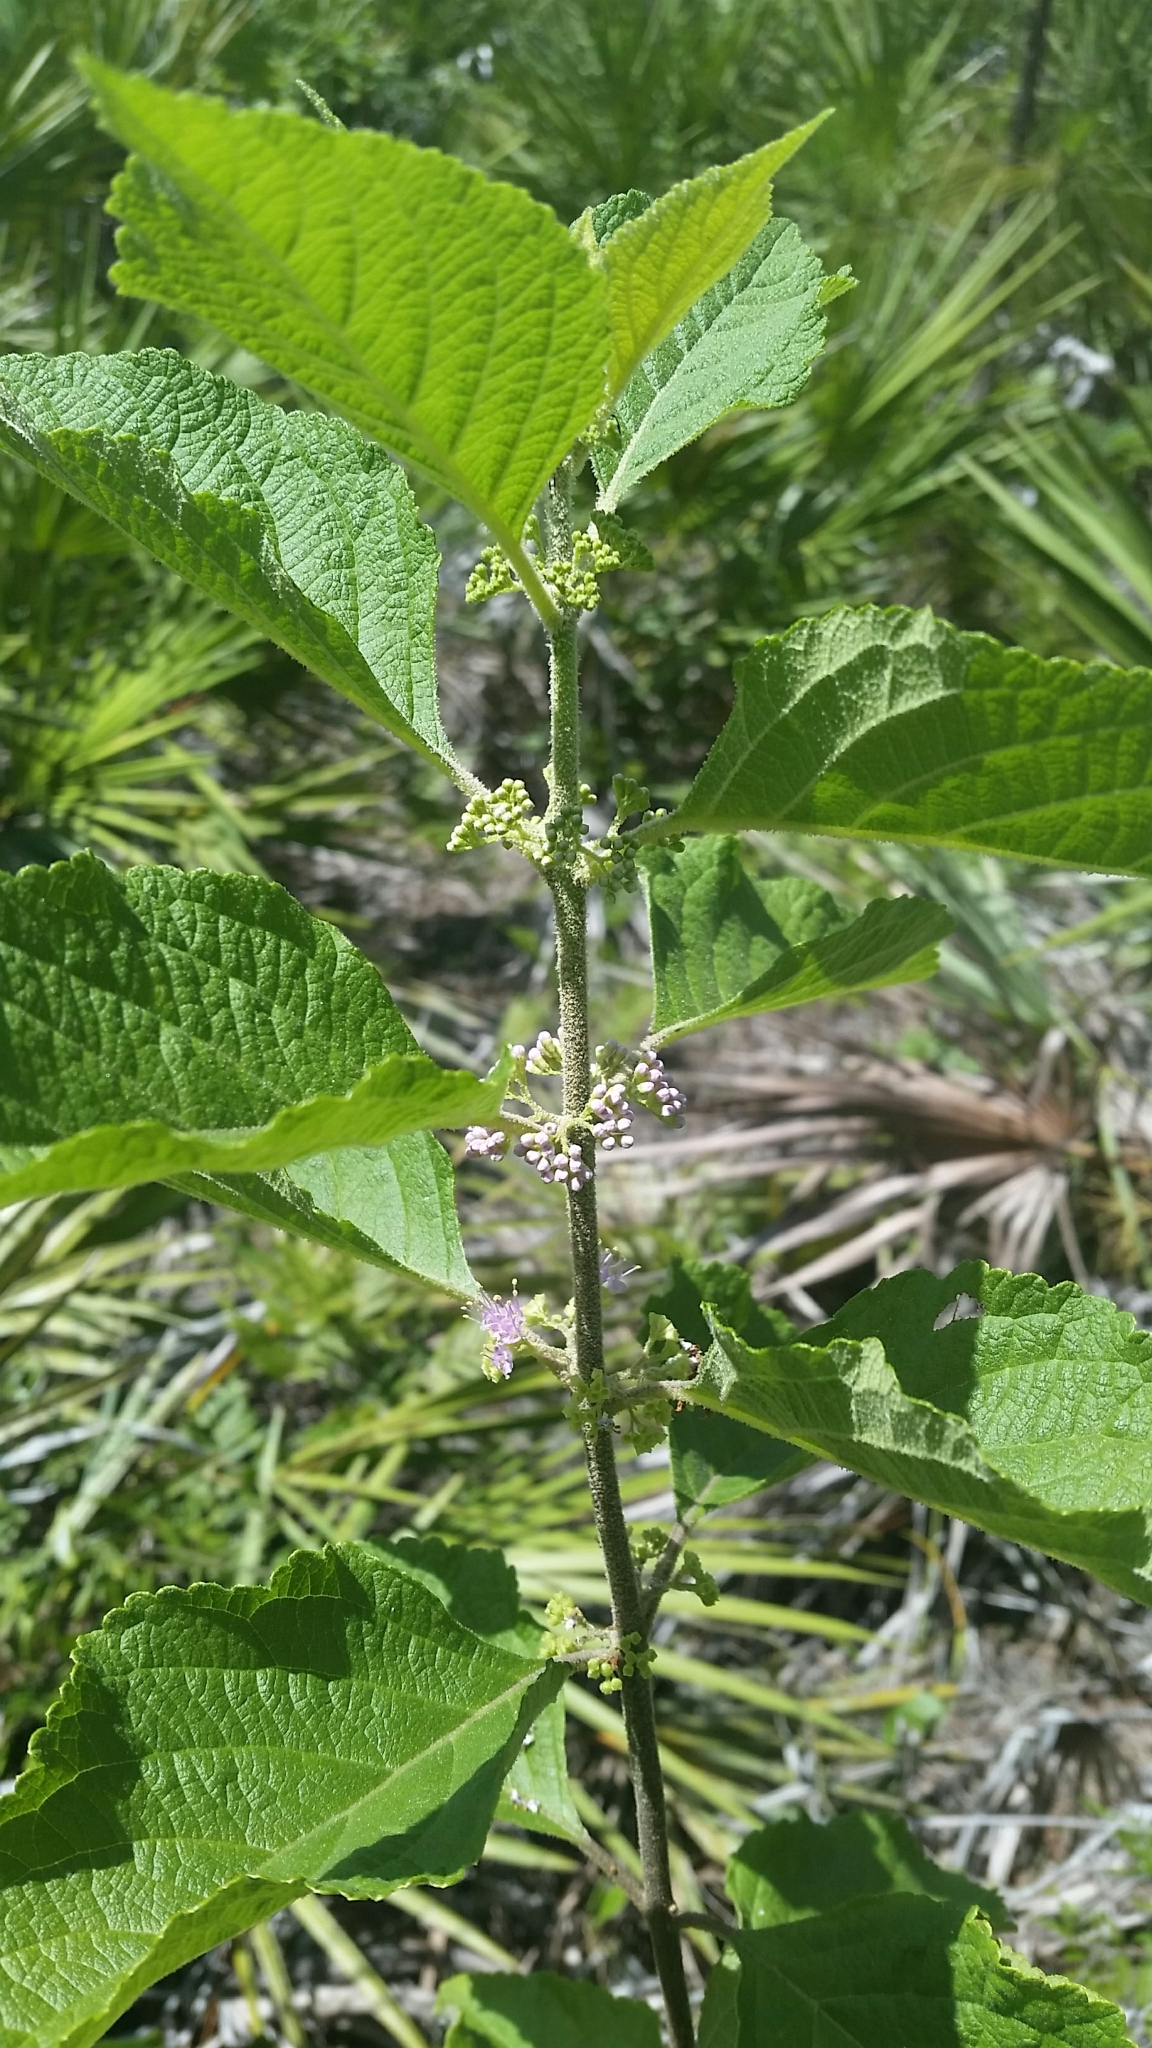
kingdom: Plantae
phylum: Tracheophyta
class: Magnoliopsida
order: Lamiales
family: Lamiaceae
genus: Callicarpa
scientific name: Callicarpa americana
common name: American beautyberry
